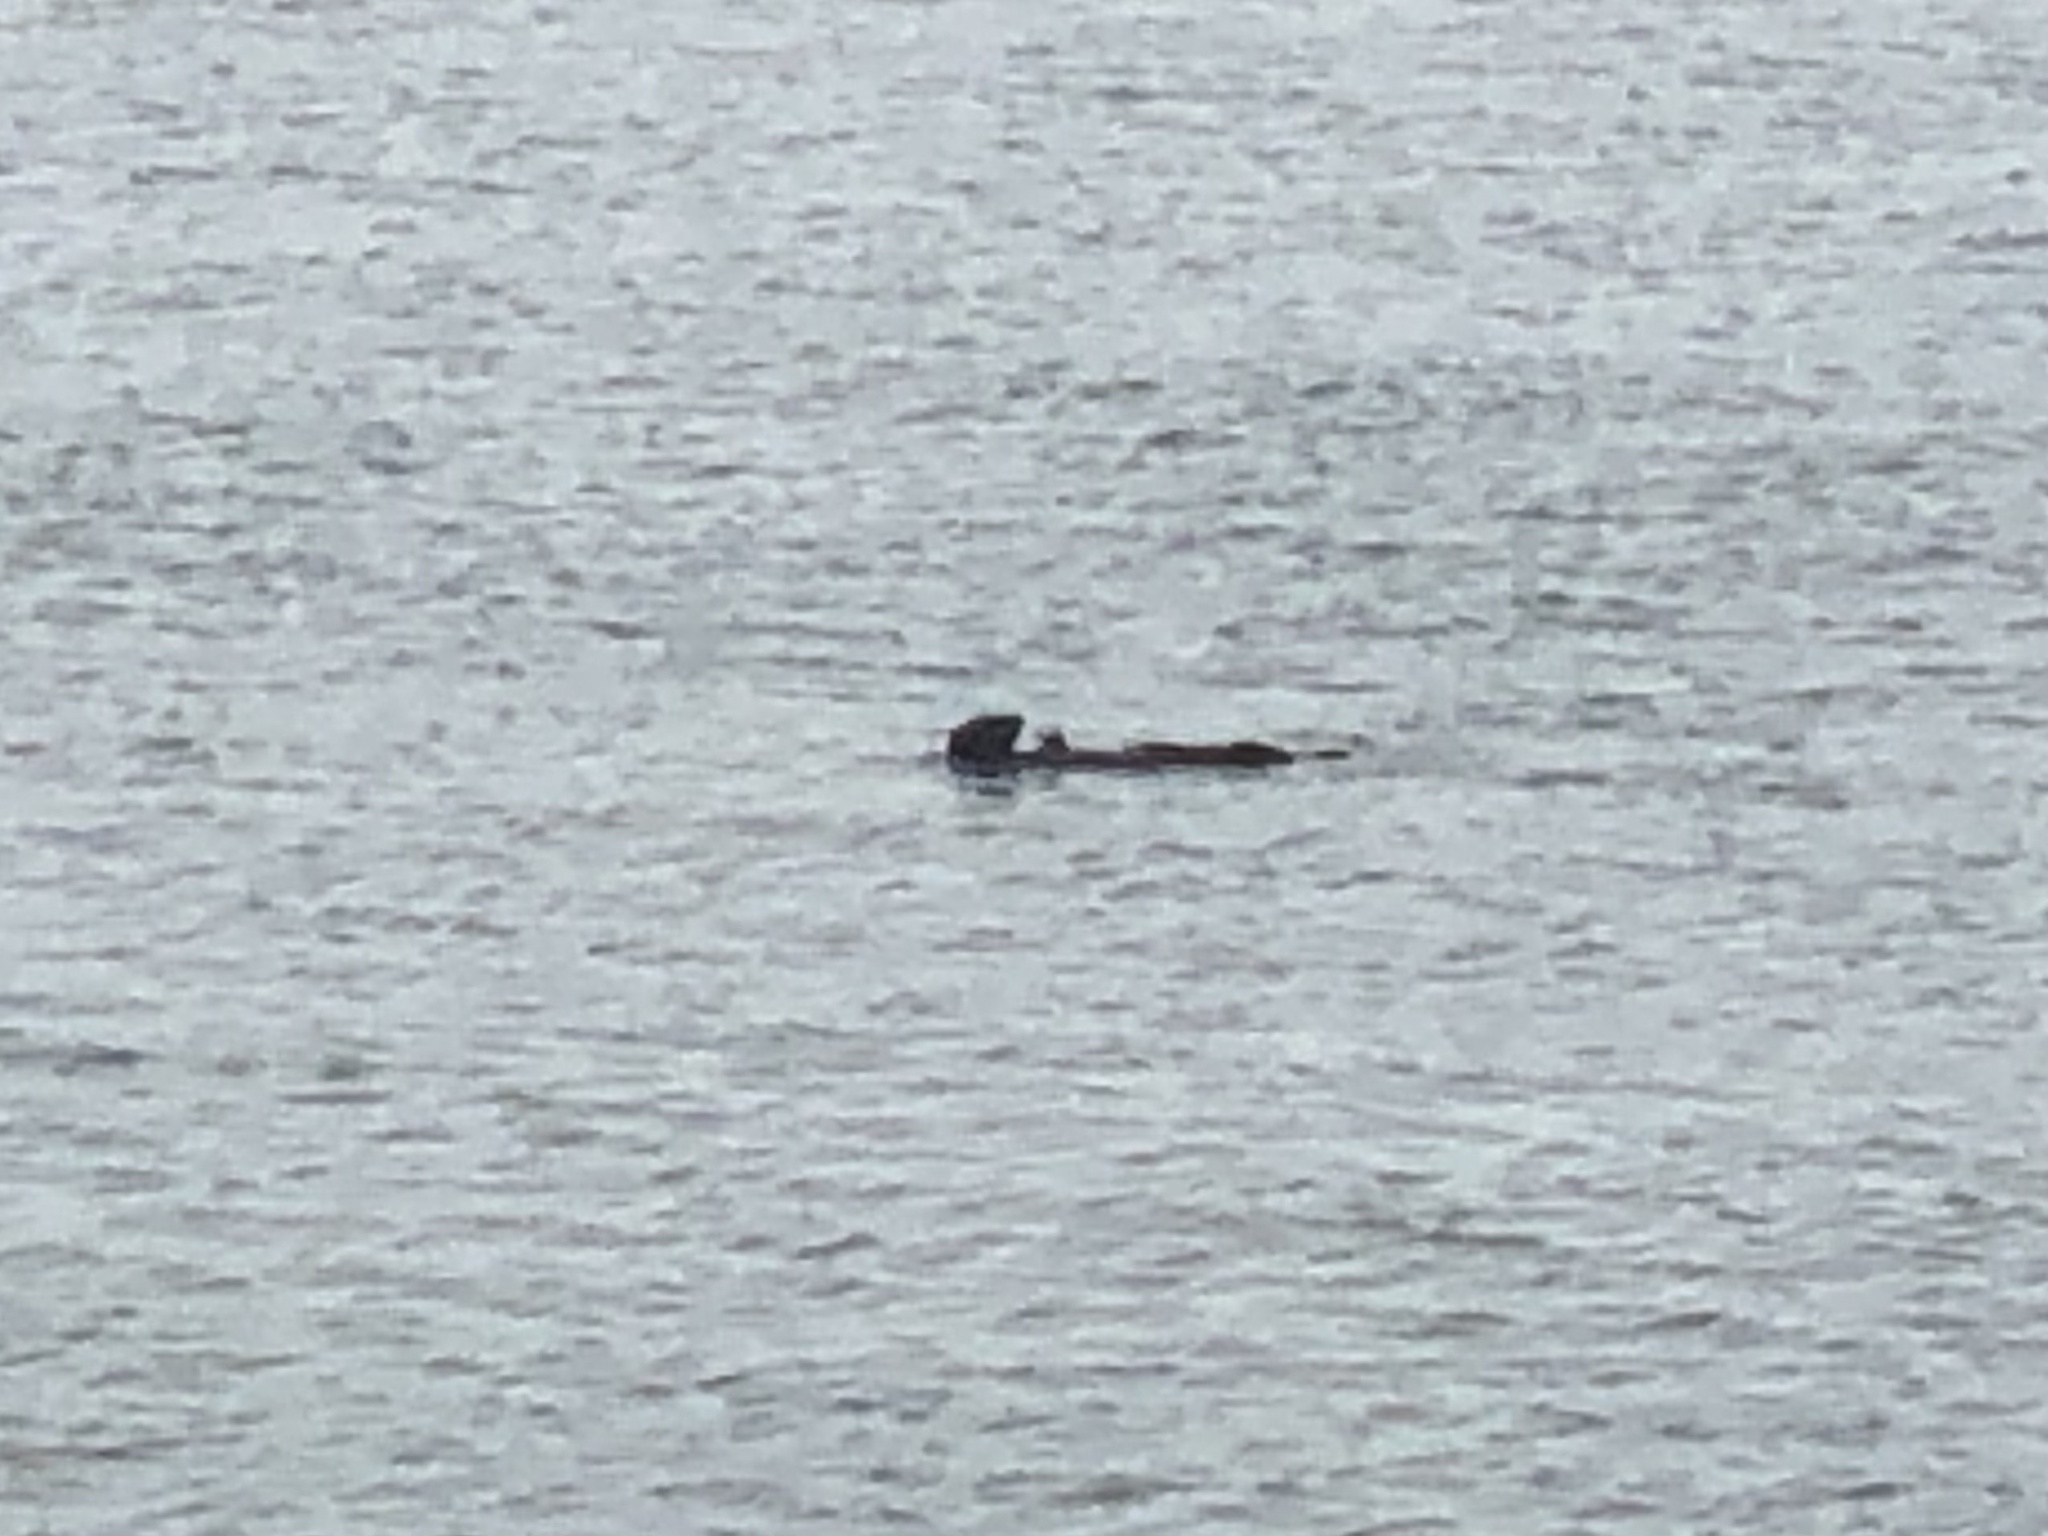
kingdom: Animalia
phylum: Chordata
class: Mammalia
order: Carnivora
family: Mustelidae
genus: Enhydra
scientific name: Enhydra lutris
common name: Sea otter
